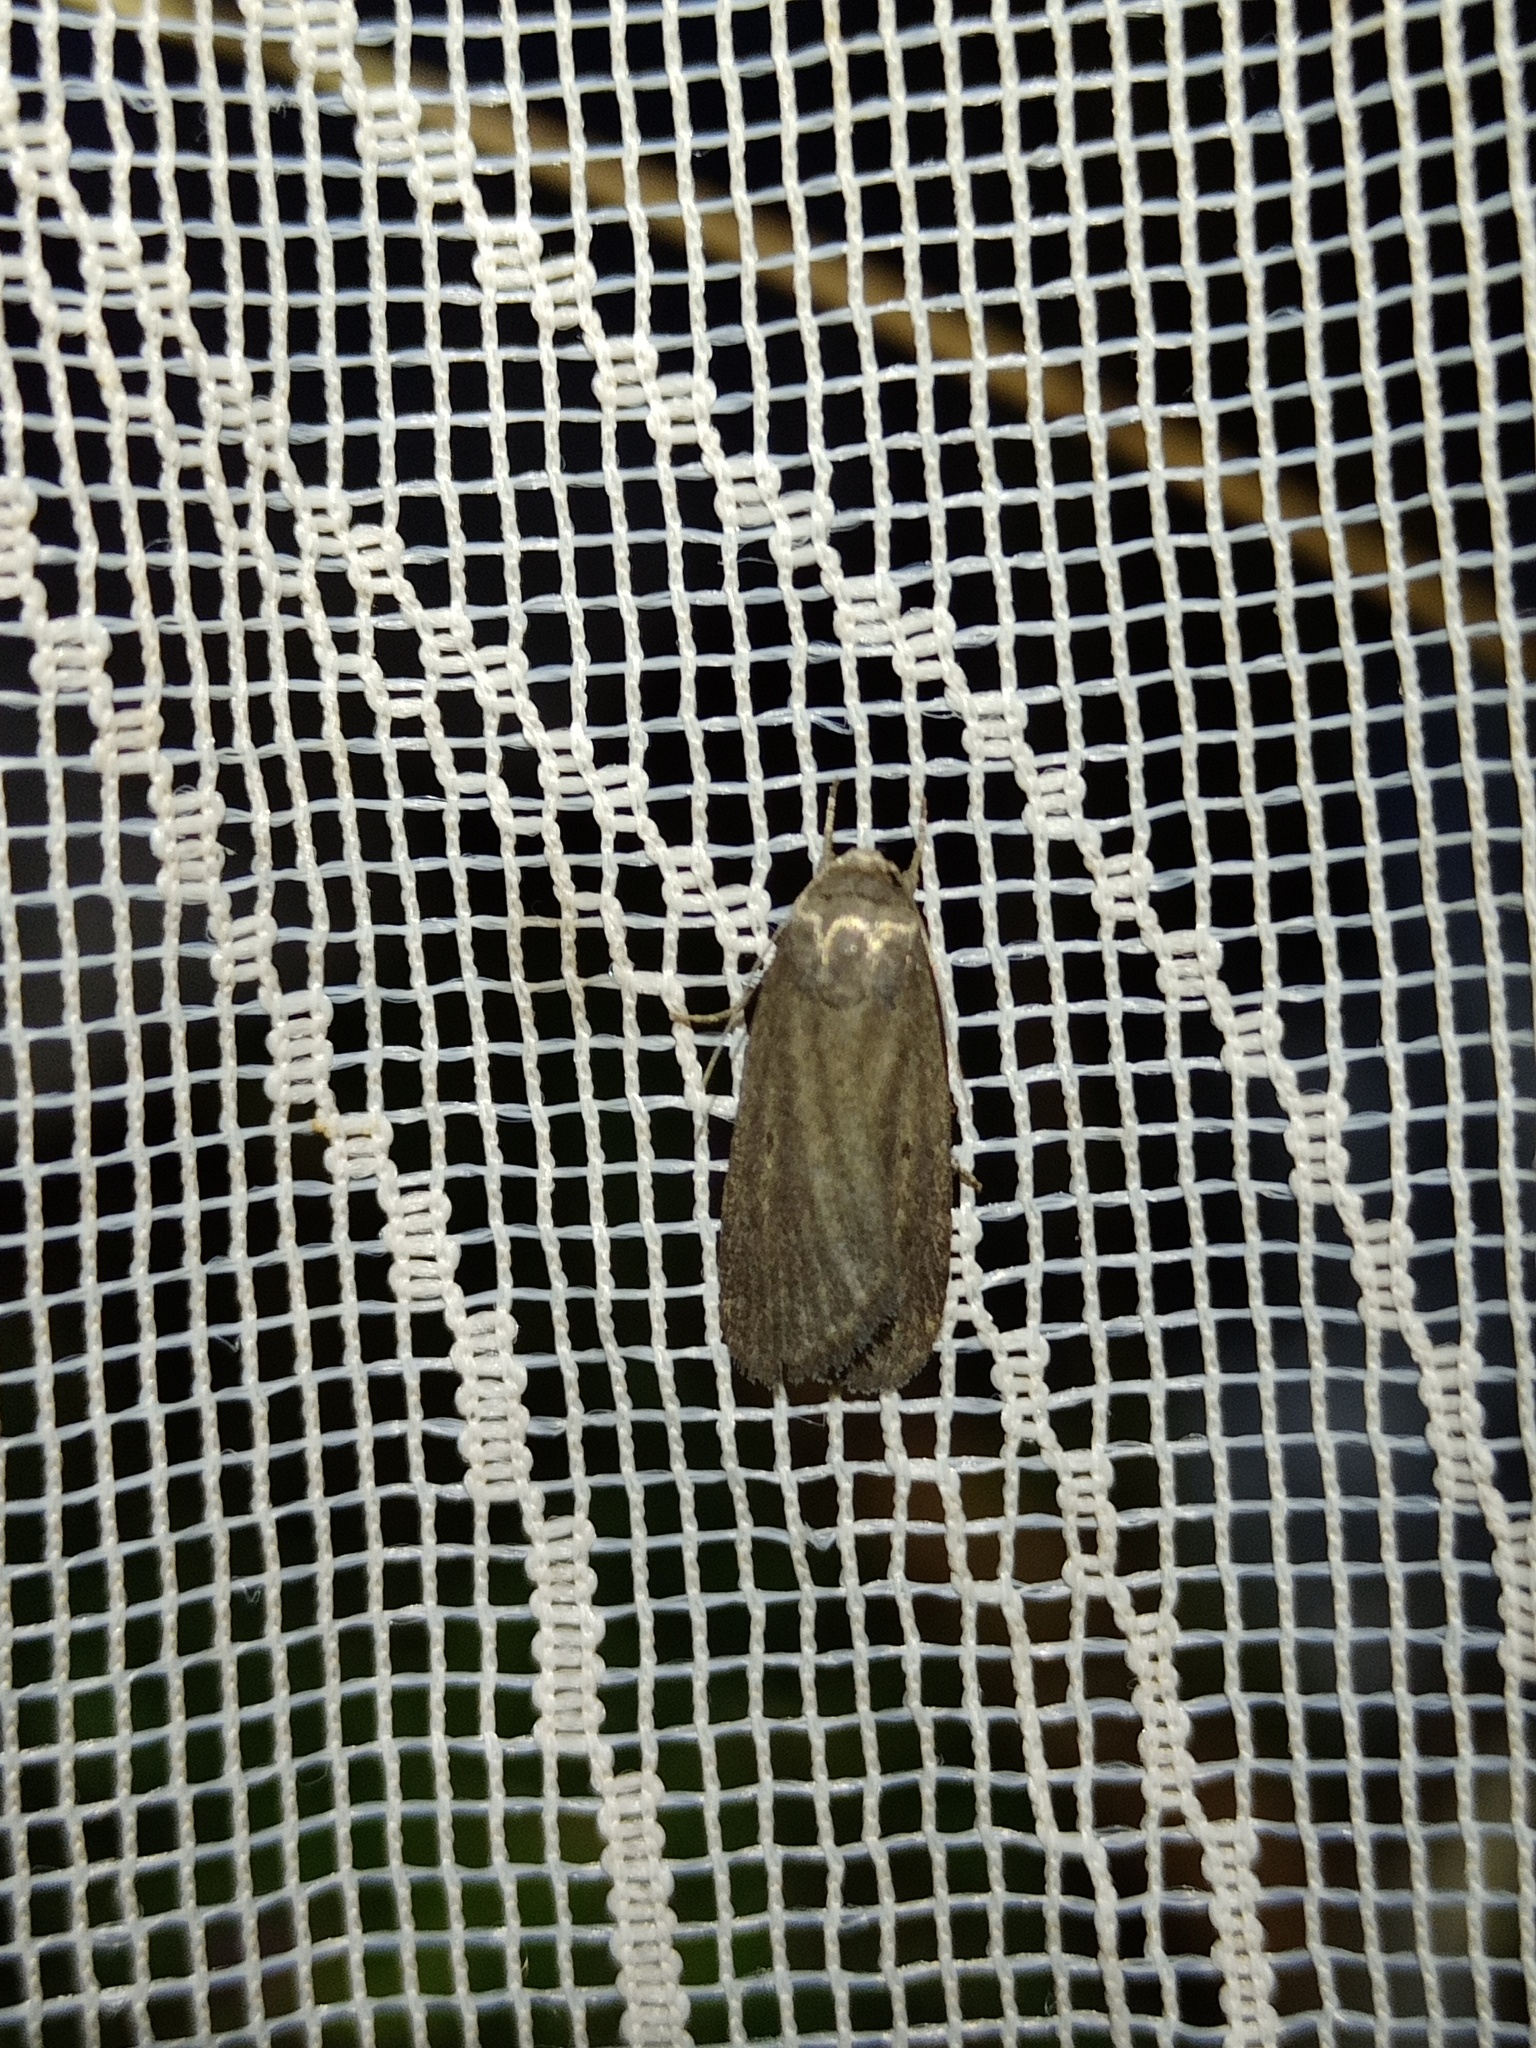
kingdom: Animalia
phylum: Arthropoda
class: Insecta
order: Lepidoptera
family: Noctuidae
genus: Athetis
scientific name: Athetis lepigone
